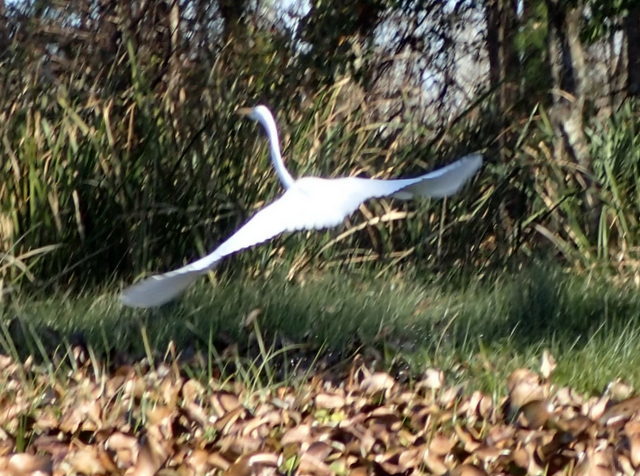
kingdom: Animalia
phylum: Chordata
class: Aves
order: Pelecaniformes
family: Ardeidae
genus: Ardea
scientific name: Ardea alba
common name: Great egret
